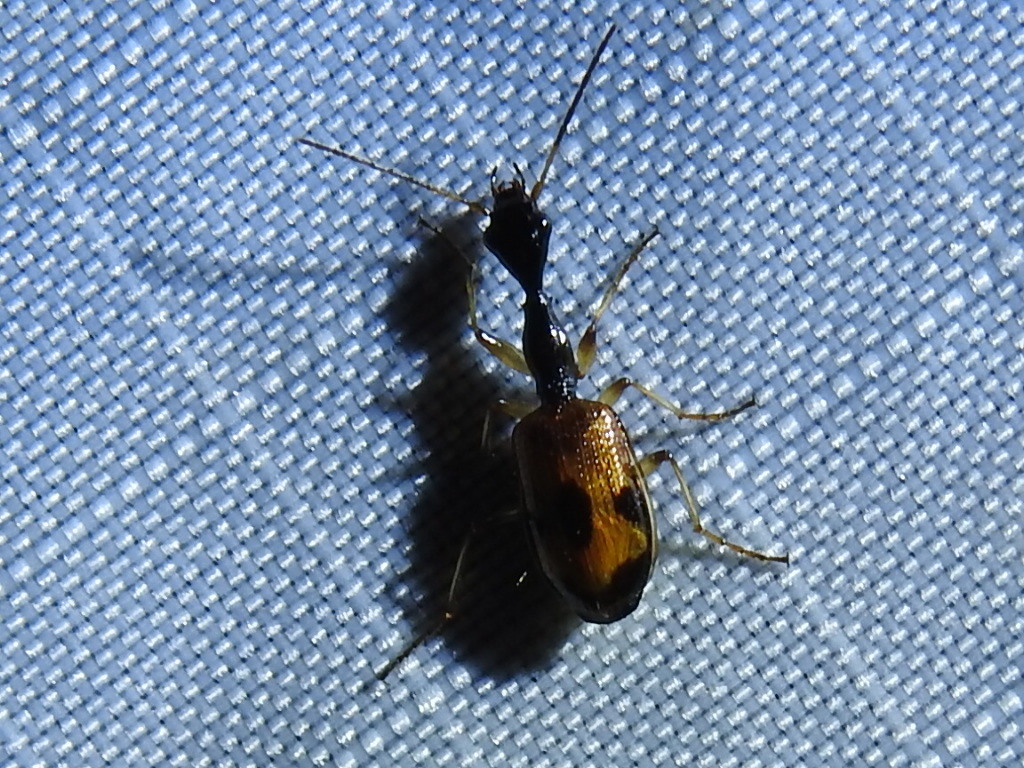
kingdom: Animalia
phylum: Arthropoda
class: Insecta
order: Coleoptera
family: Carabidae
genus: Colliuris
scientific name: Colliuris pensylvanica
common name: Long-necked ground beetle
